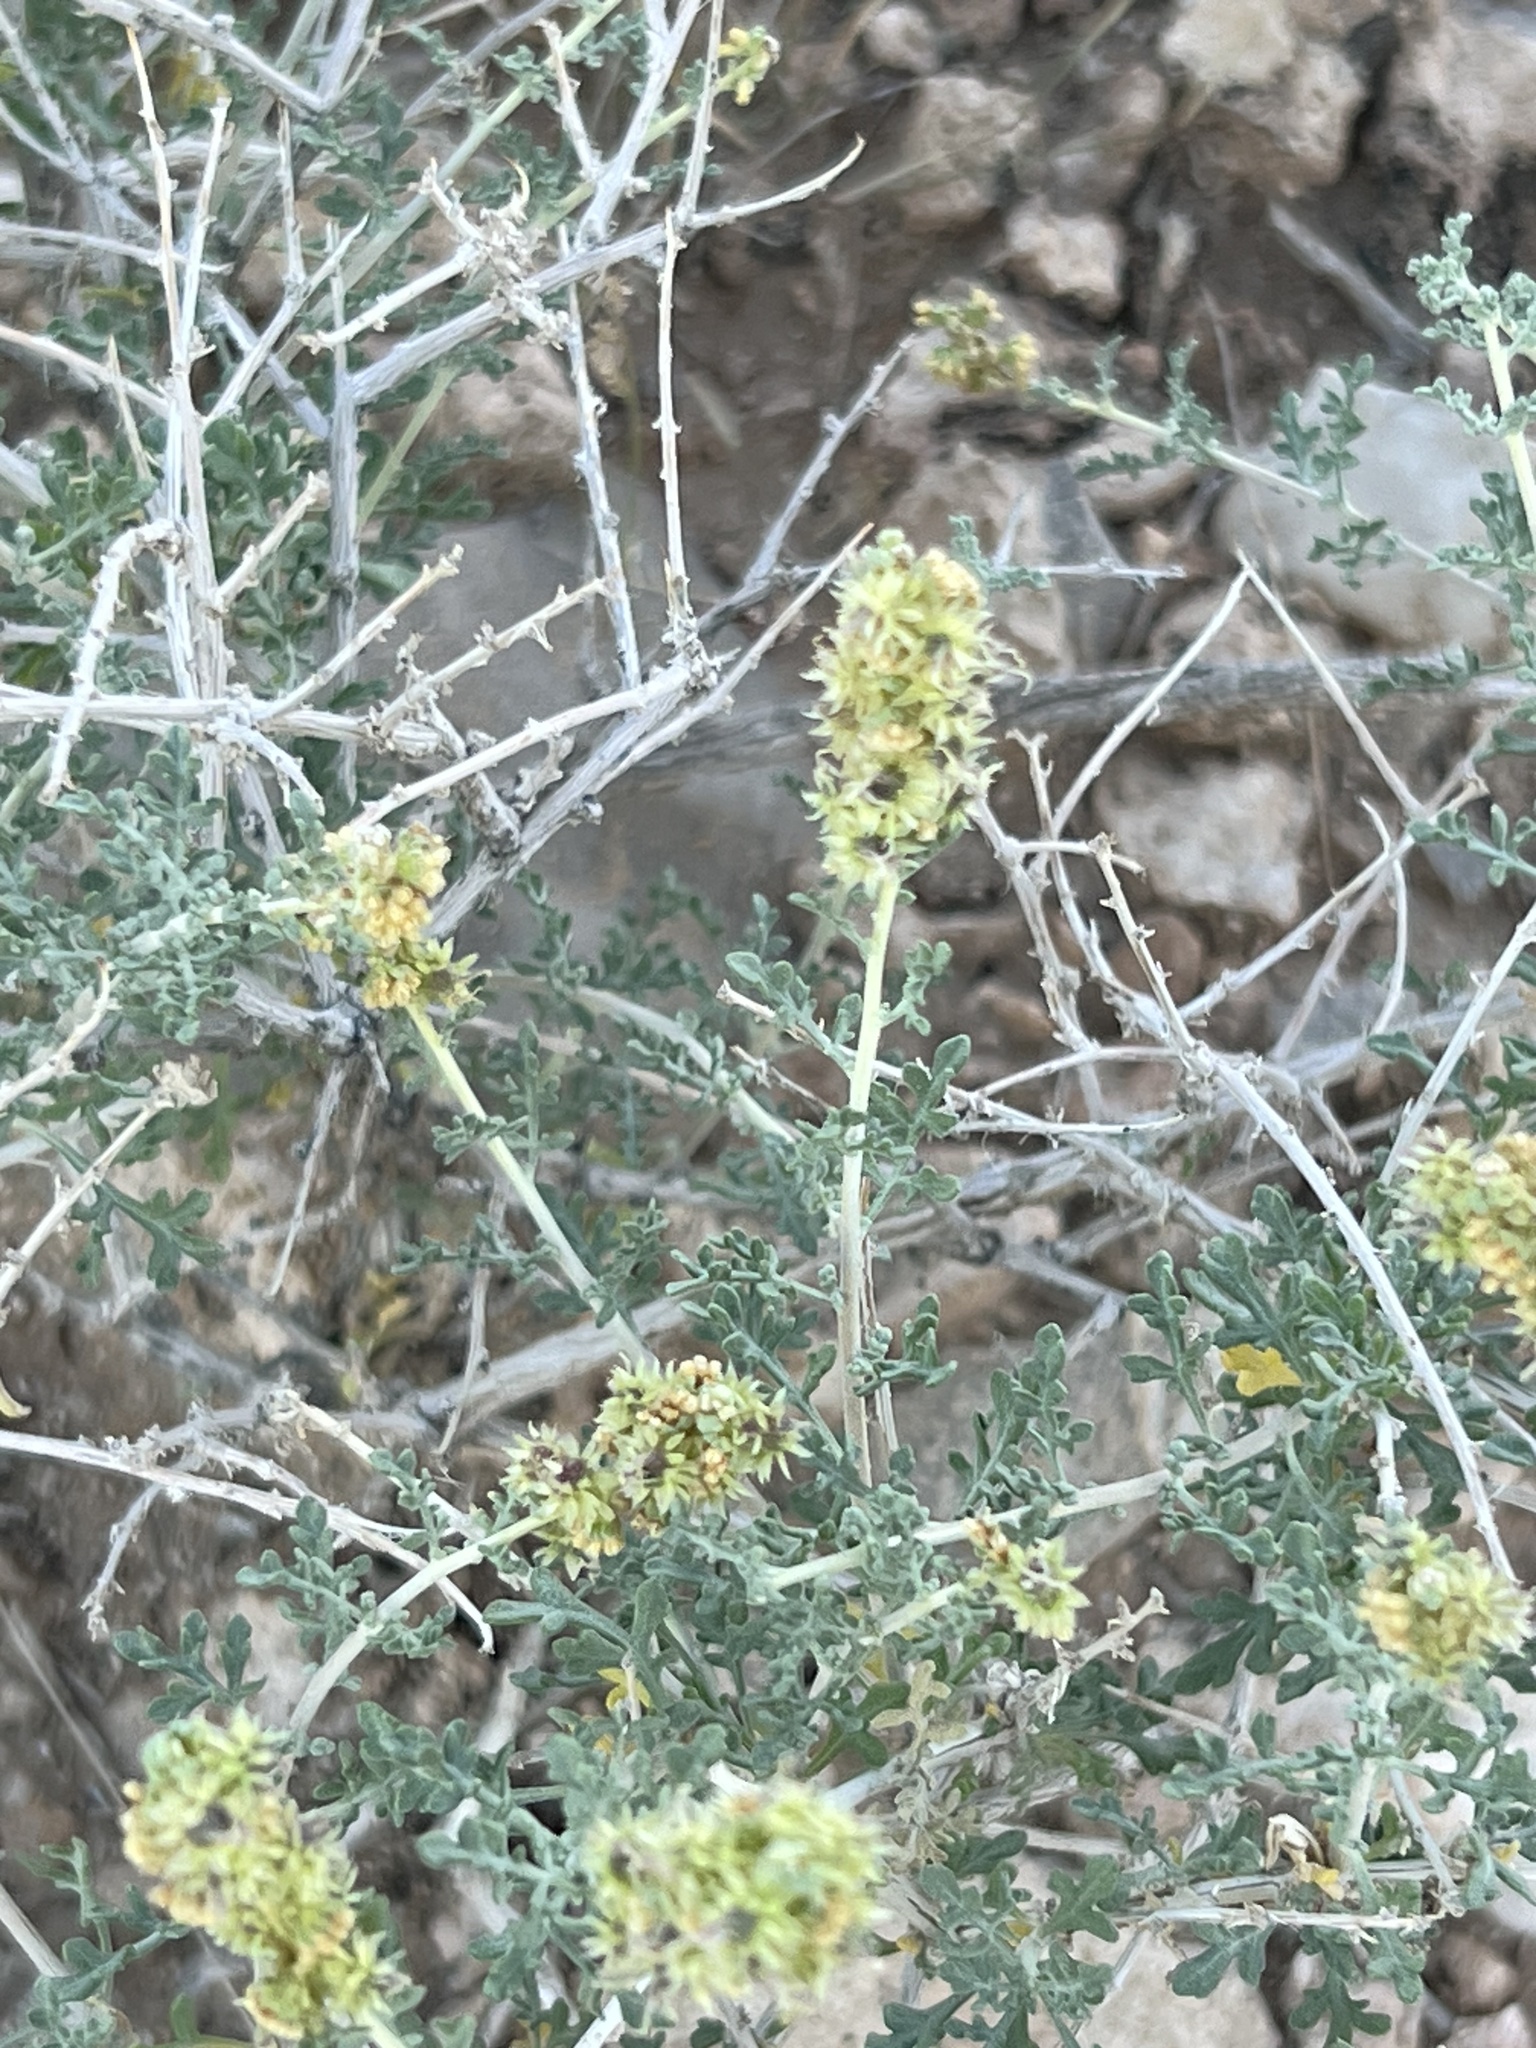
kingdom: Plantae
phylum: Tracheophyta
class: Magnoliopsida
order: Asterales
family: Asteraceae
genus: Ambrosia
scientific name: Ambrosia dumosa
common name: Bur-sage
